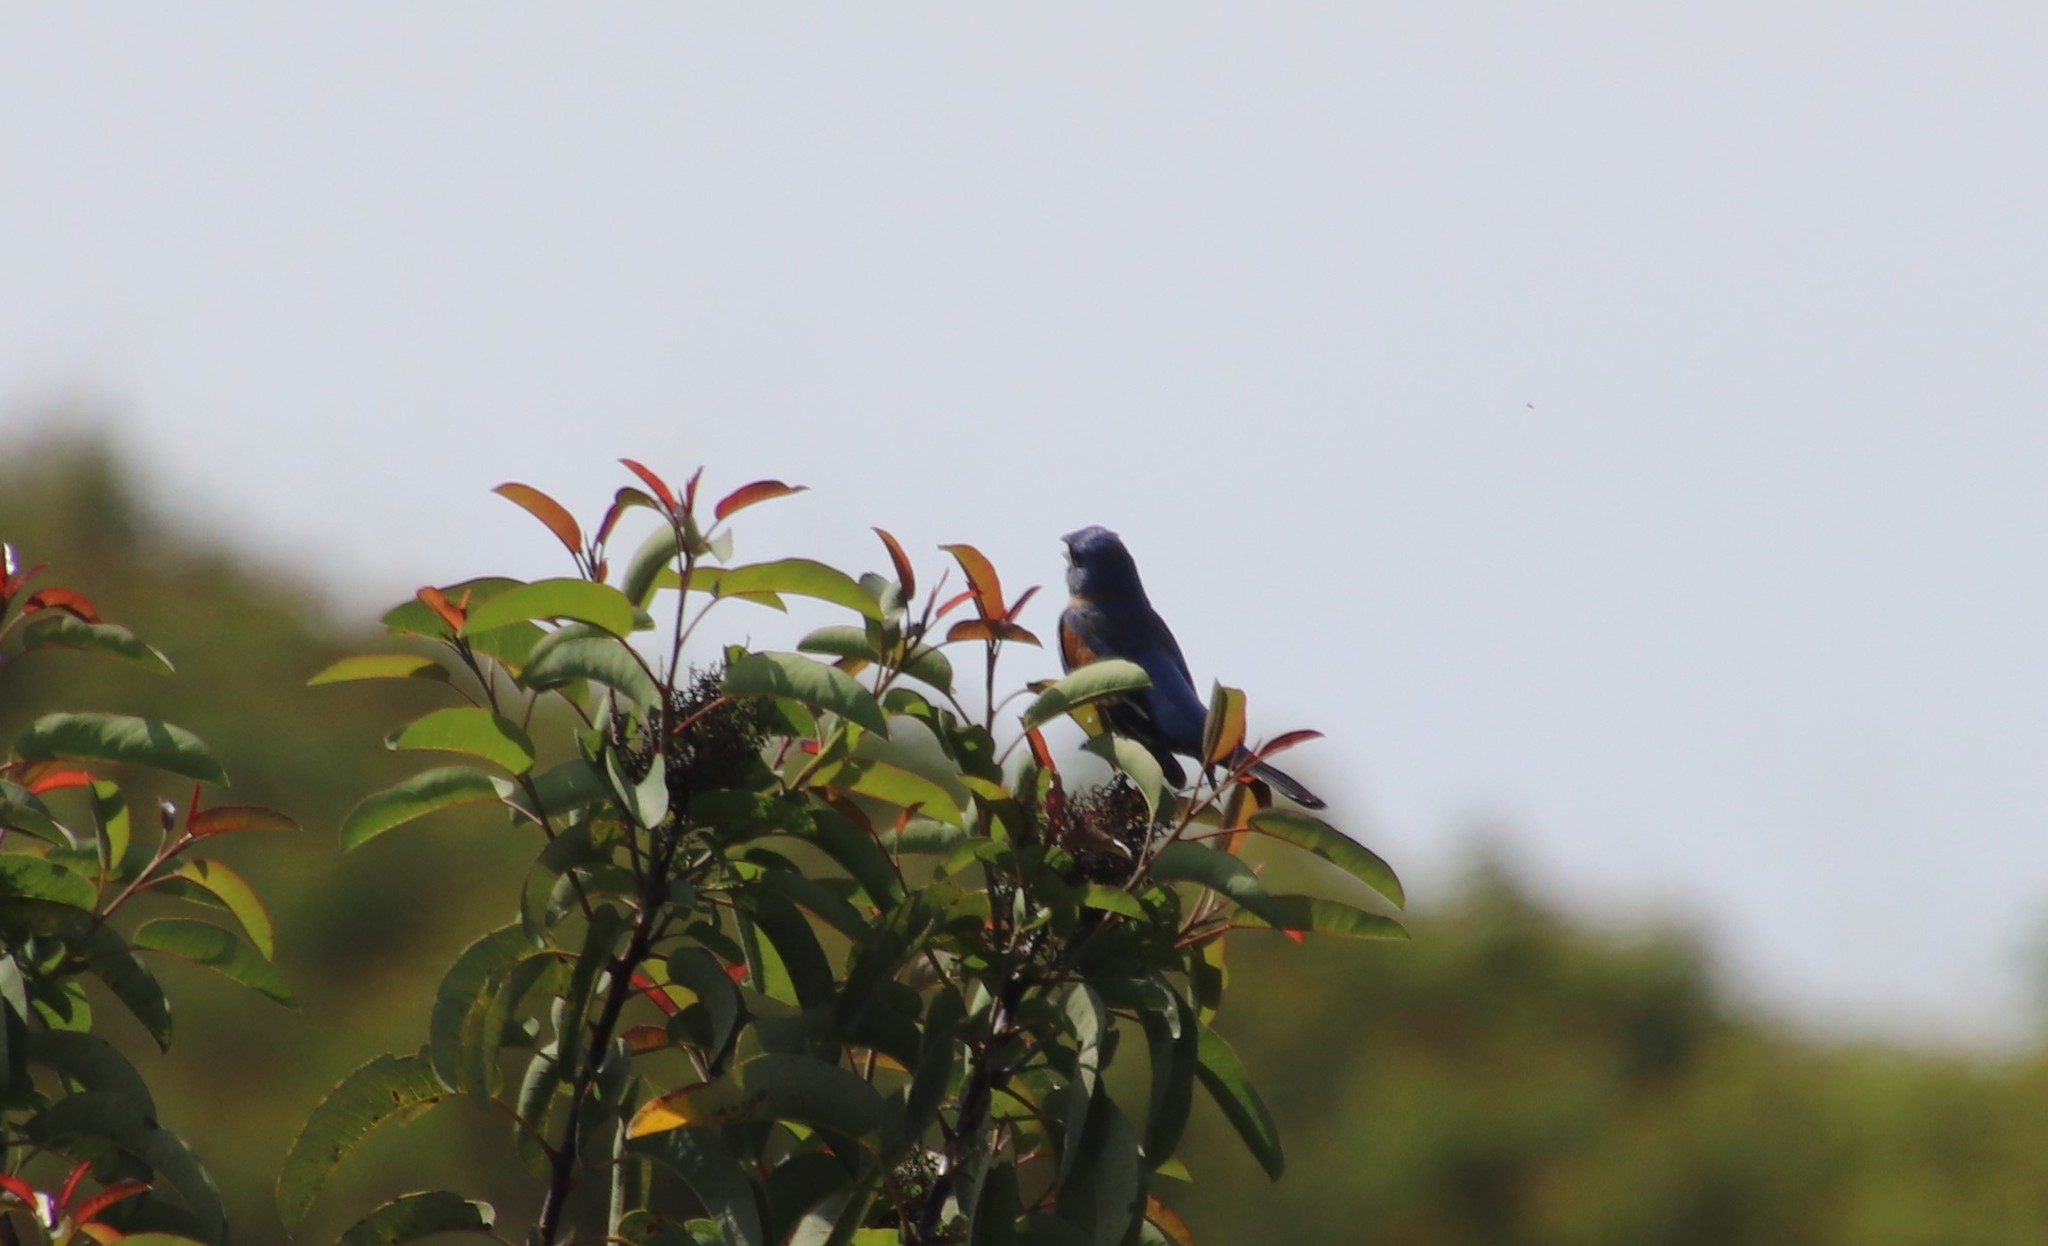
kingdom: Animalia
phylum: Chordata
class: Aves
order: Passeriformes
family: Cardinalidae
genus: Passerina
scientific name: Passerina caerulea
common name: Blue grosbeak
